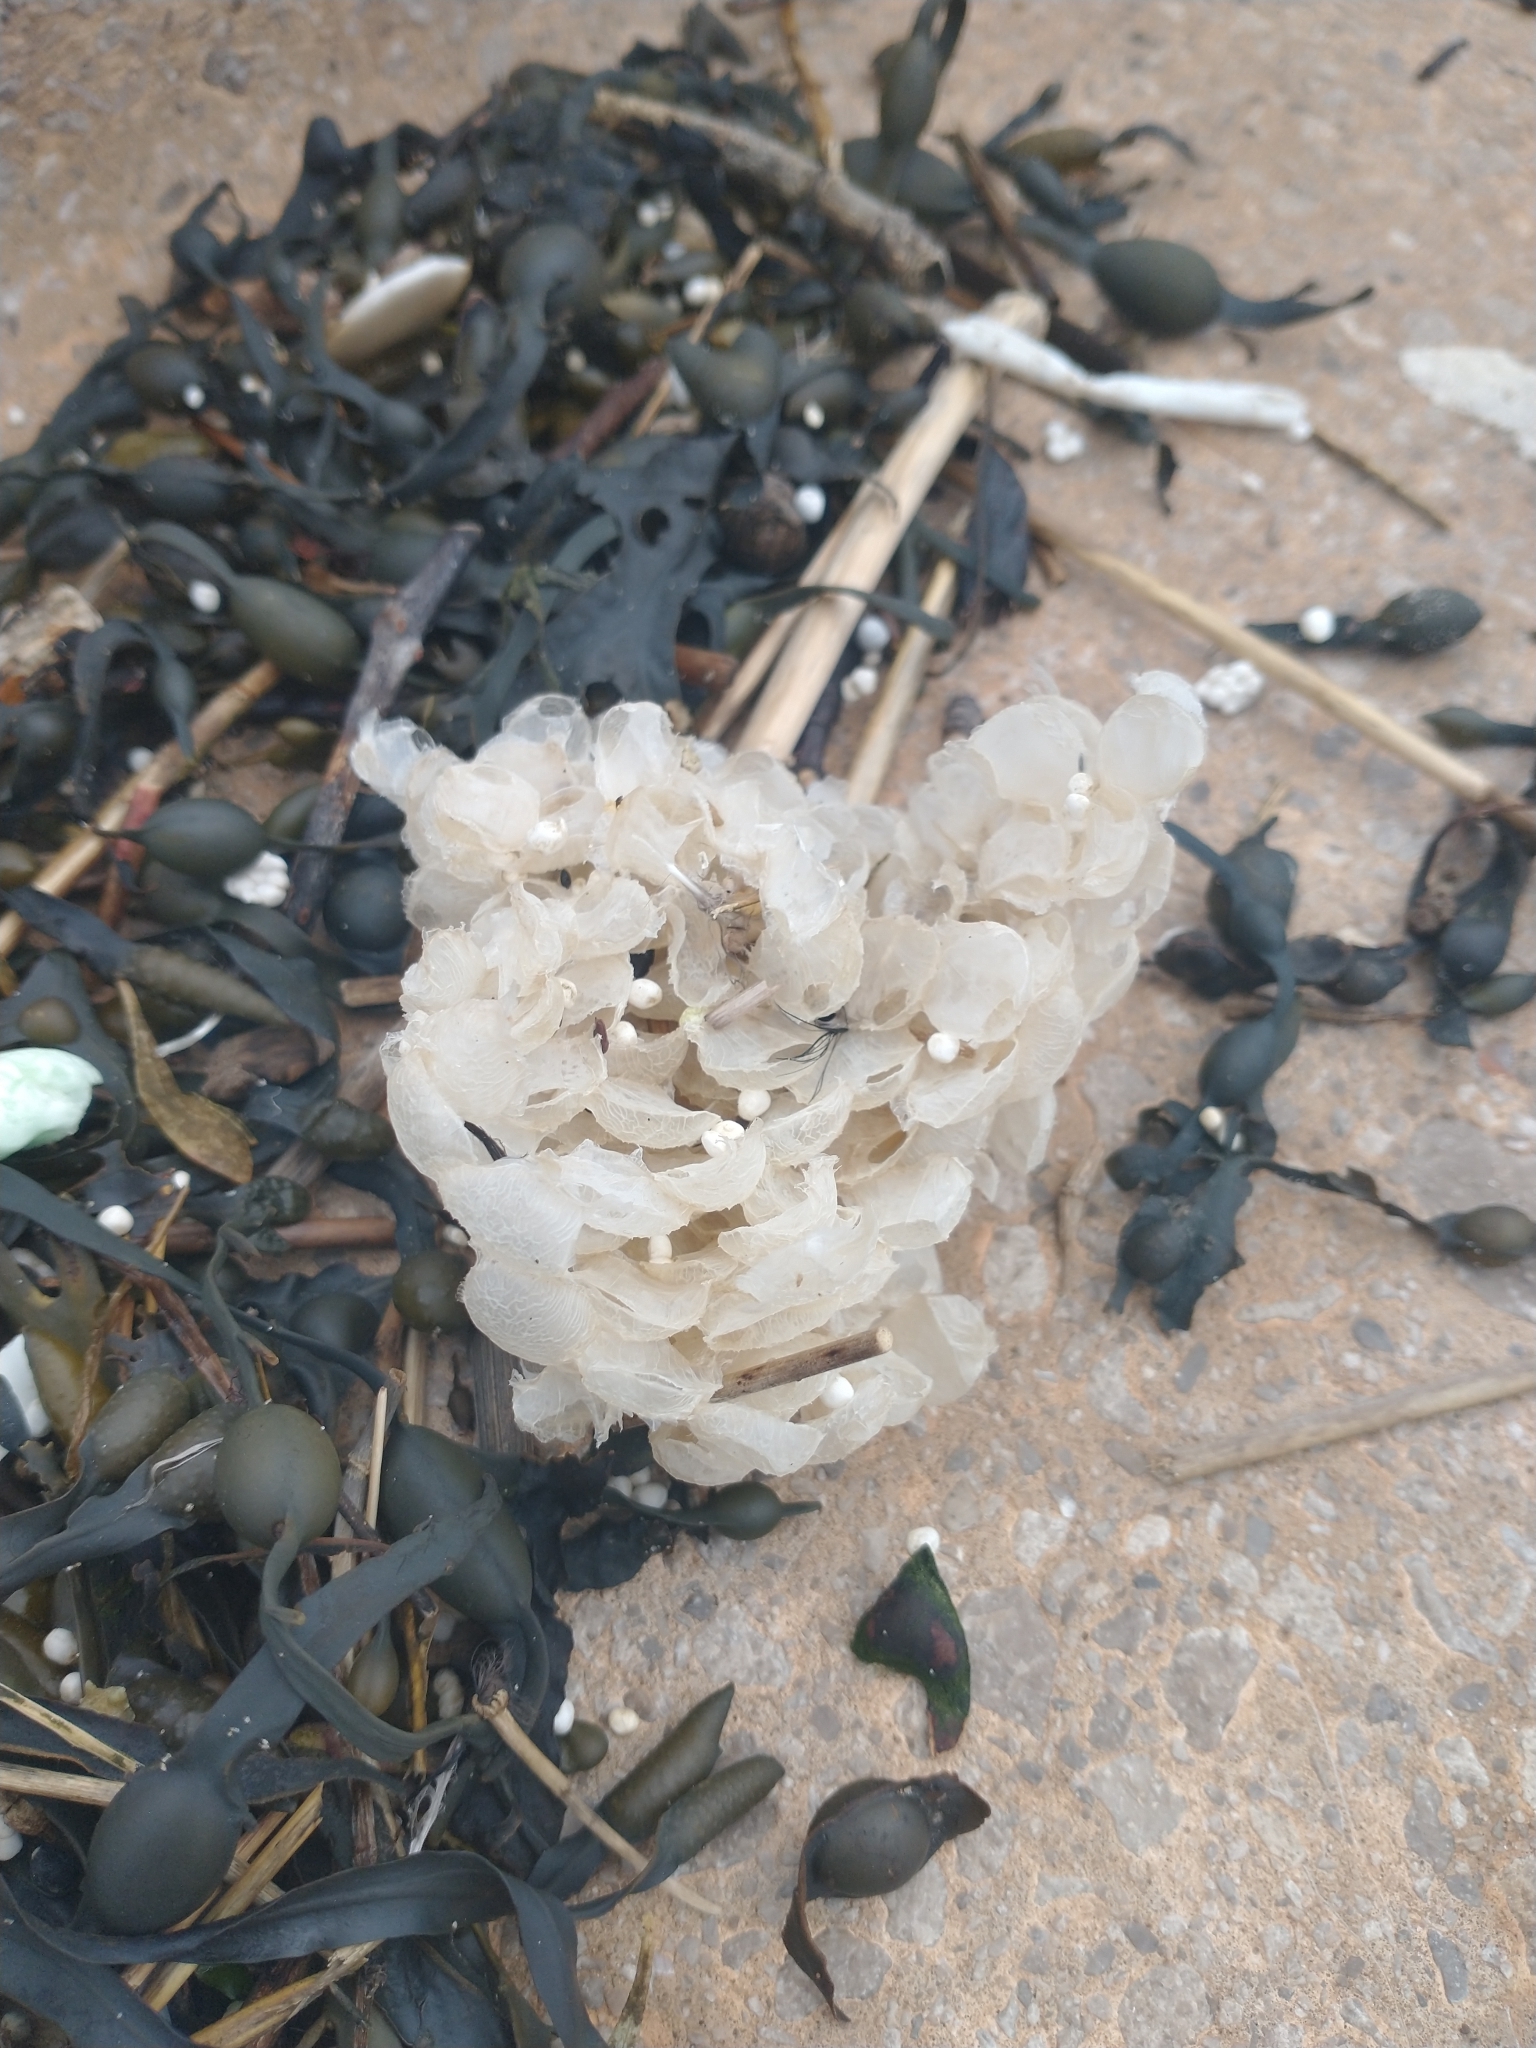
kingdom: Animalia
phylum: Mollusca
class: Gastropoda
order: Neogastropoda
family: Buccinidae
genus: Buccinum
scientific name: Buccinum undatum
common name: Common whelk
